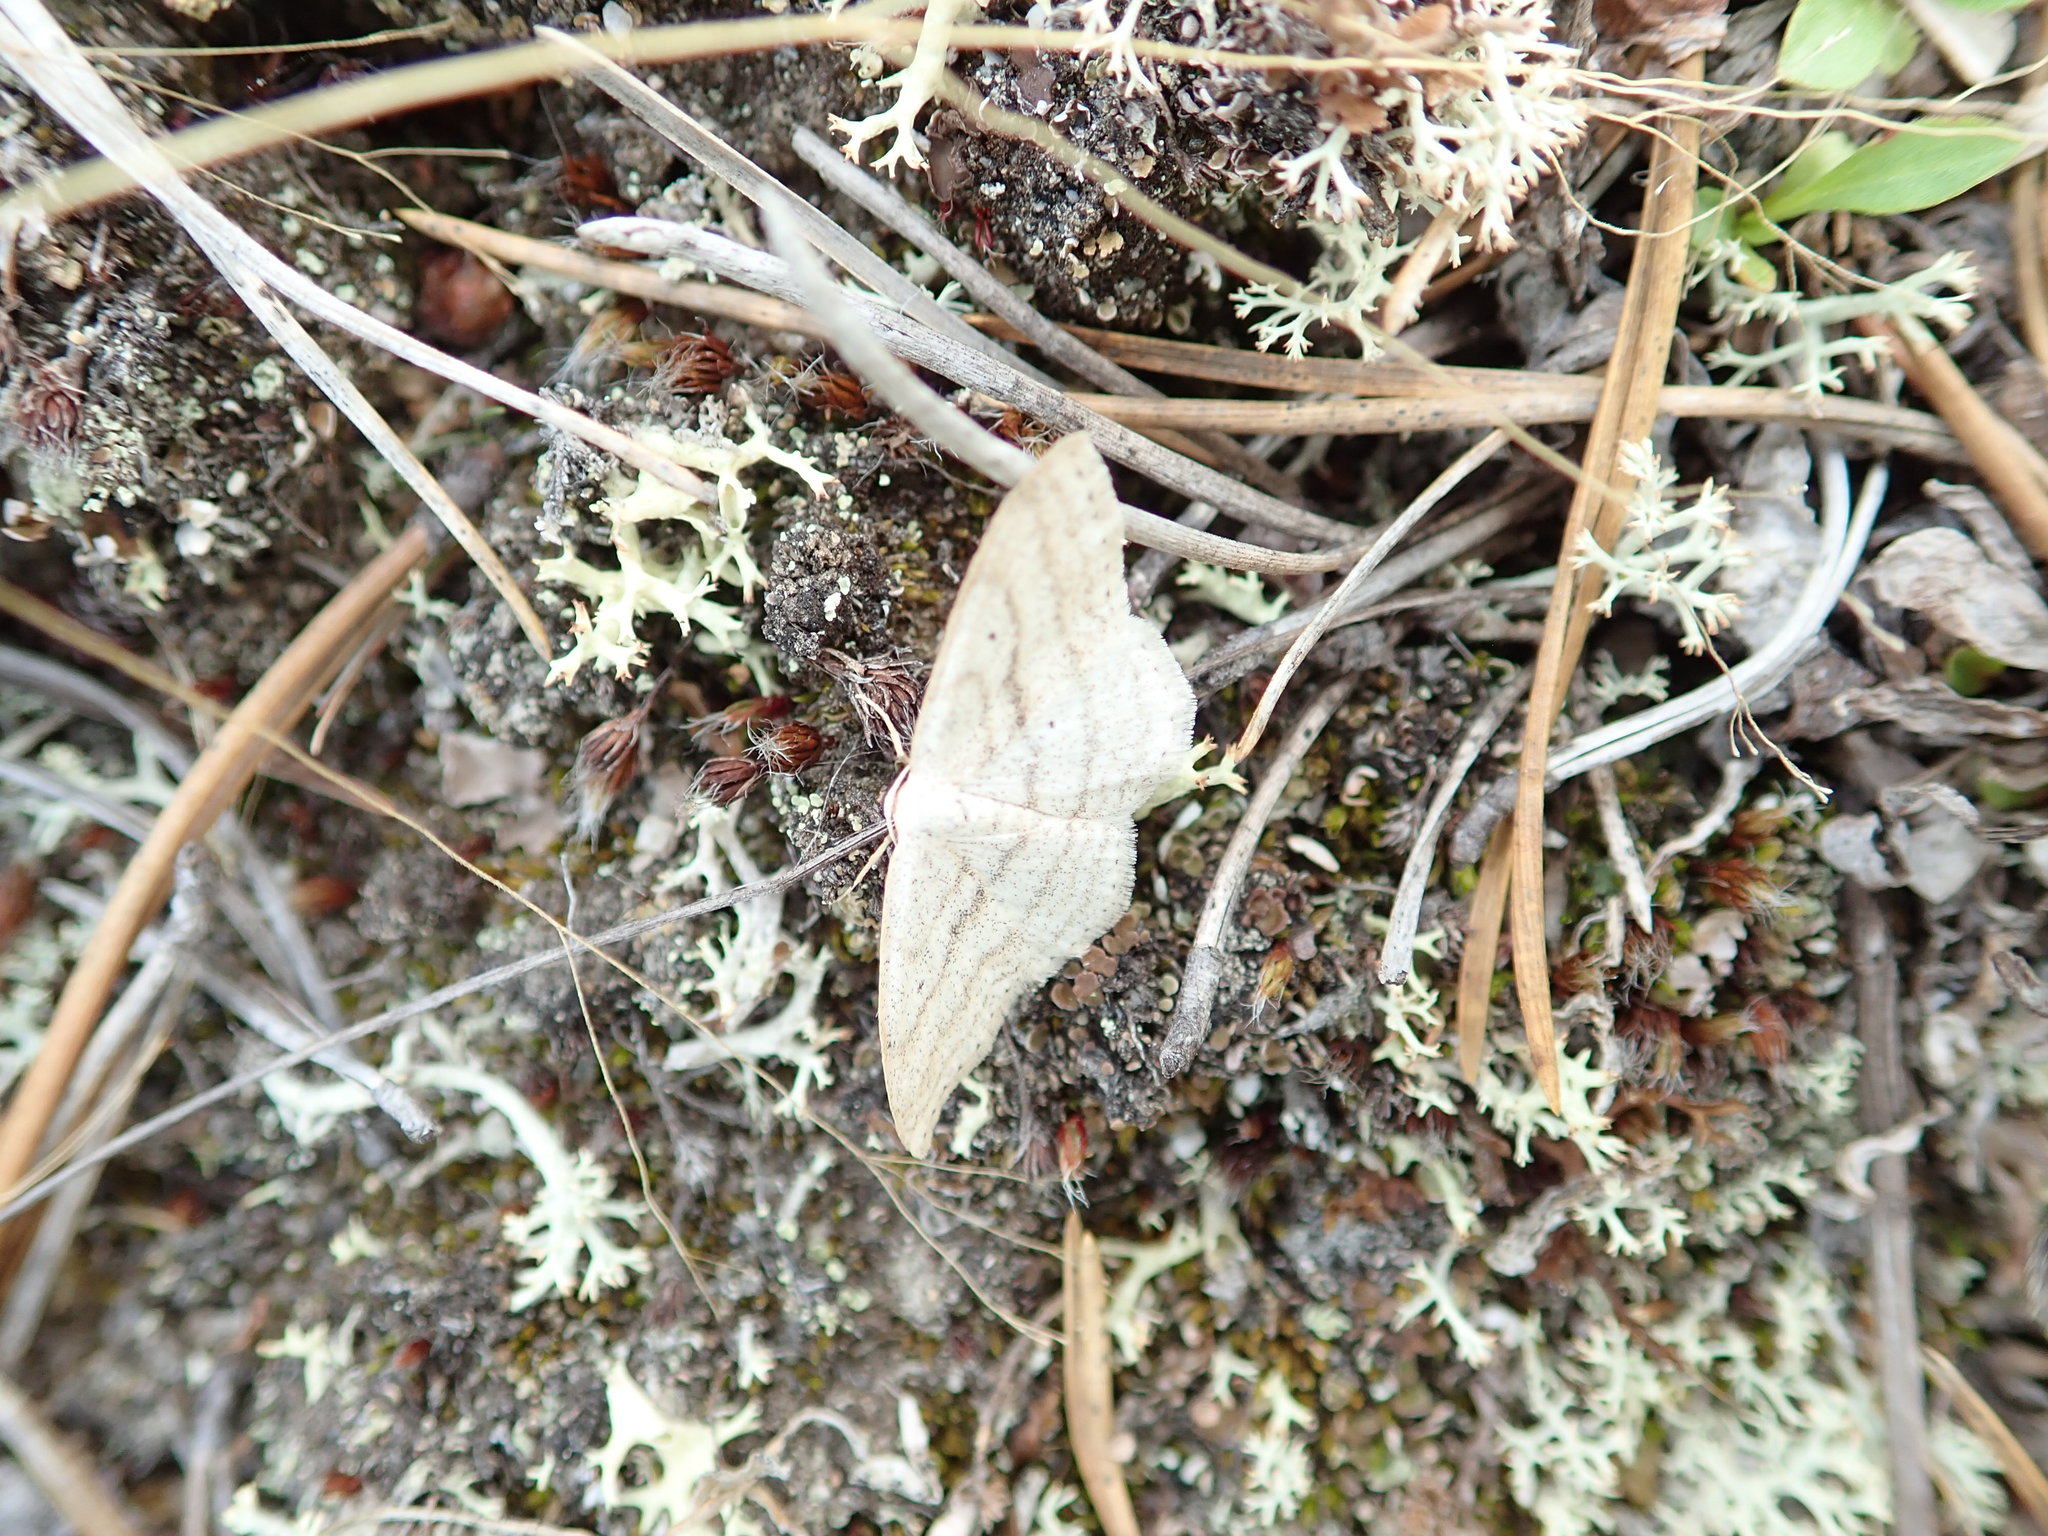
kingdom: Animalia
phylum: Arthropoda
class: Insecta
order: Lepidoptera
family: Geometridae
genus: Scopula
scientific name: Scopula ancellata
